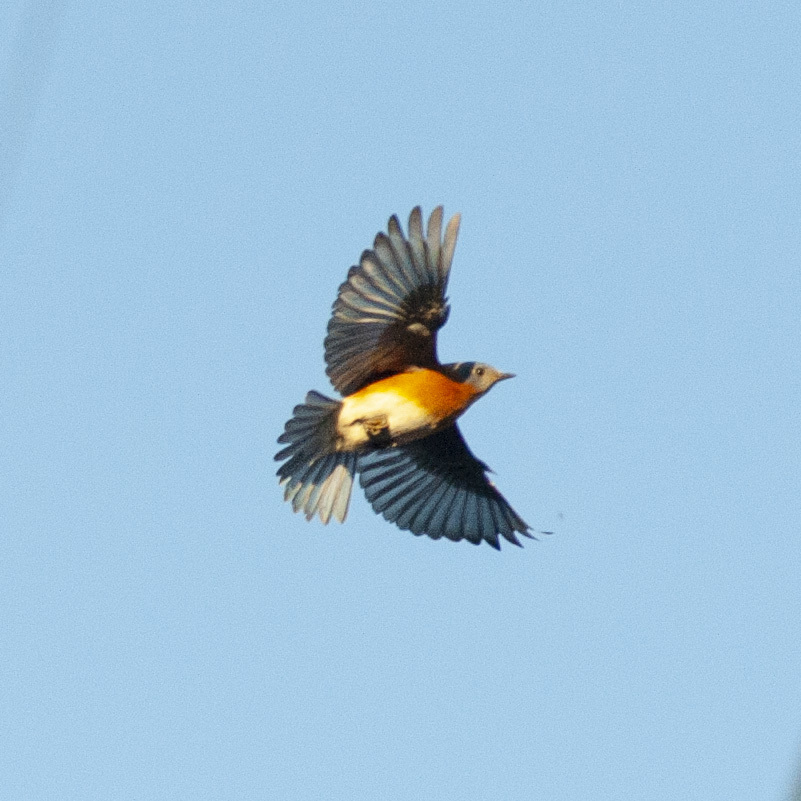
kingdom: Animalia
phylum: Chordata
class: Aves
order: Passeriformes
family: Turdidae
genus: Sialia
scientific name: Sialia sialis
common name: Eastern bluebird
